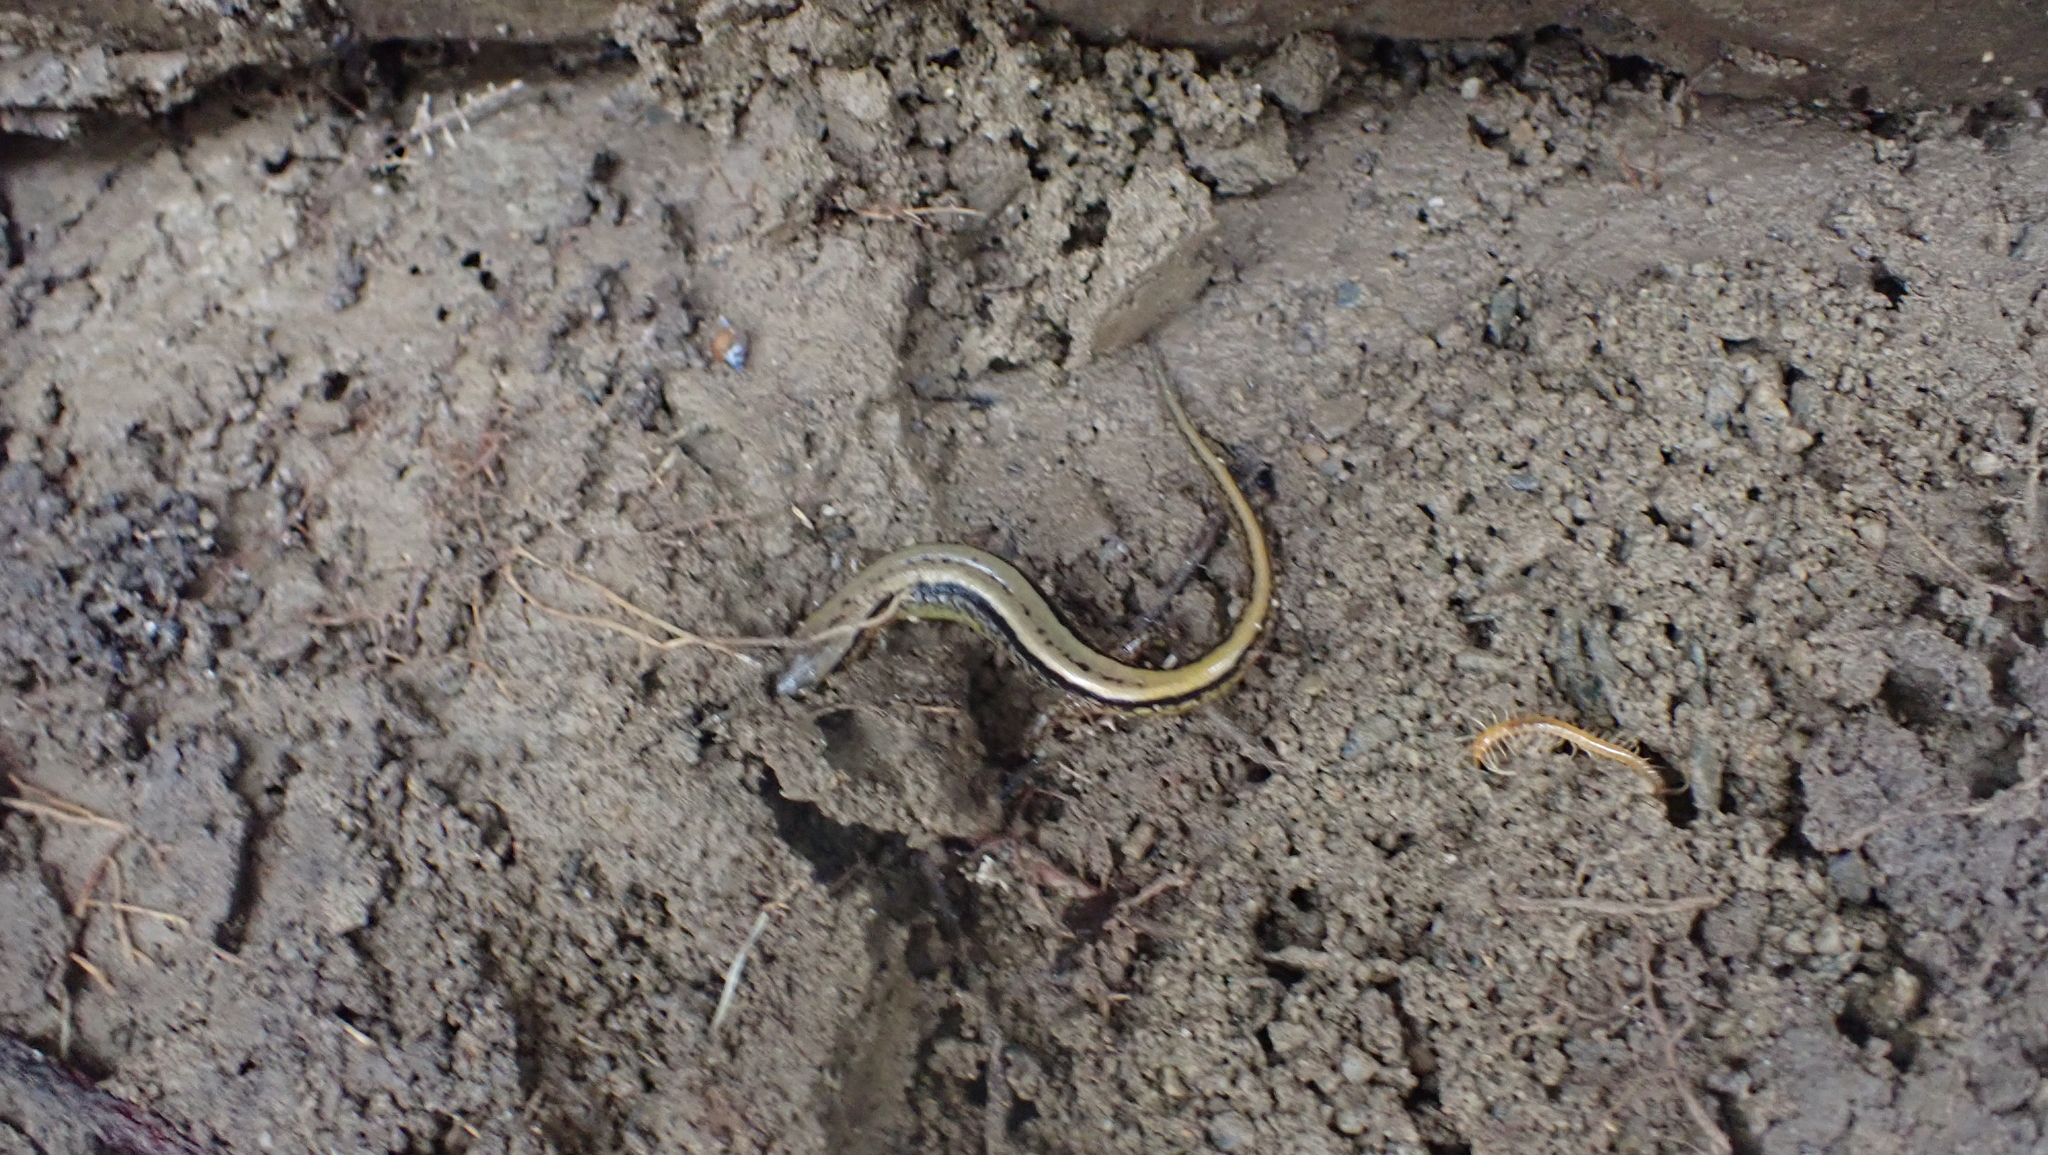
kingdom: Animalia
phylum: Chordata
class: Amphibia
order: Caudata
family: Plethodontidae
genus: Eurycea
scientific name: Eurycea cirrigera
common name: Southern two-lined salamander
